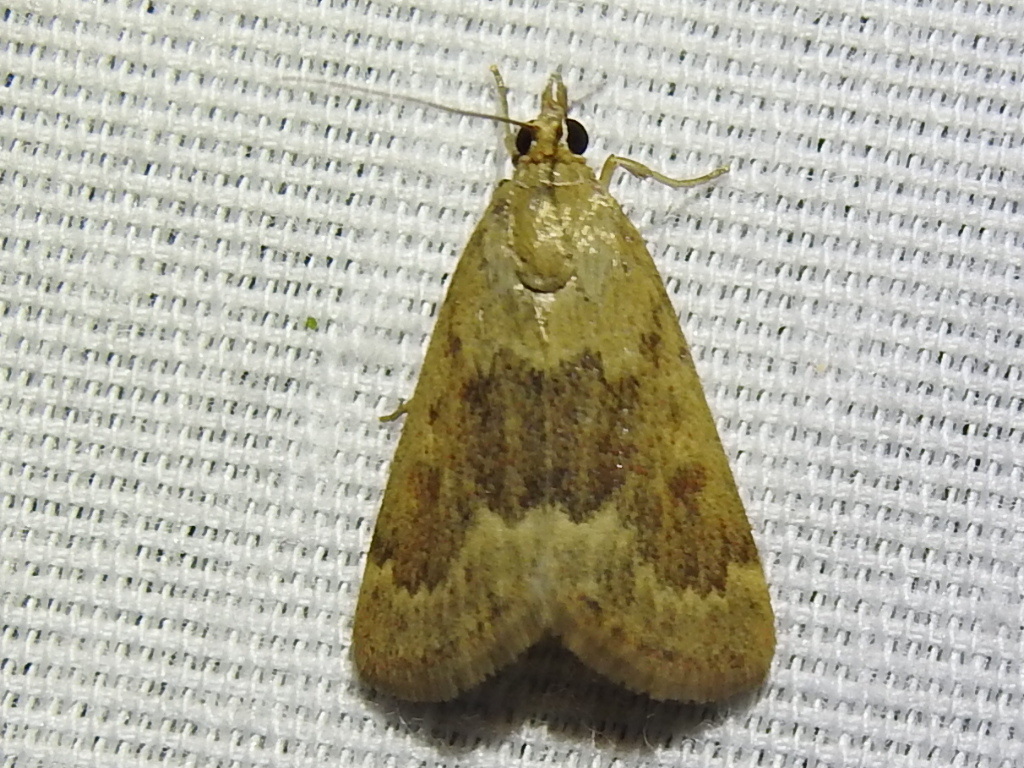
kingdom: Animalia
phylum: Arthropoda
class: Insecta
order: Lepidoptera
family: Crambidae
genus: Achyra
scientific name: Achyra rantalis
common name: Garden webworm
